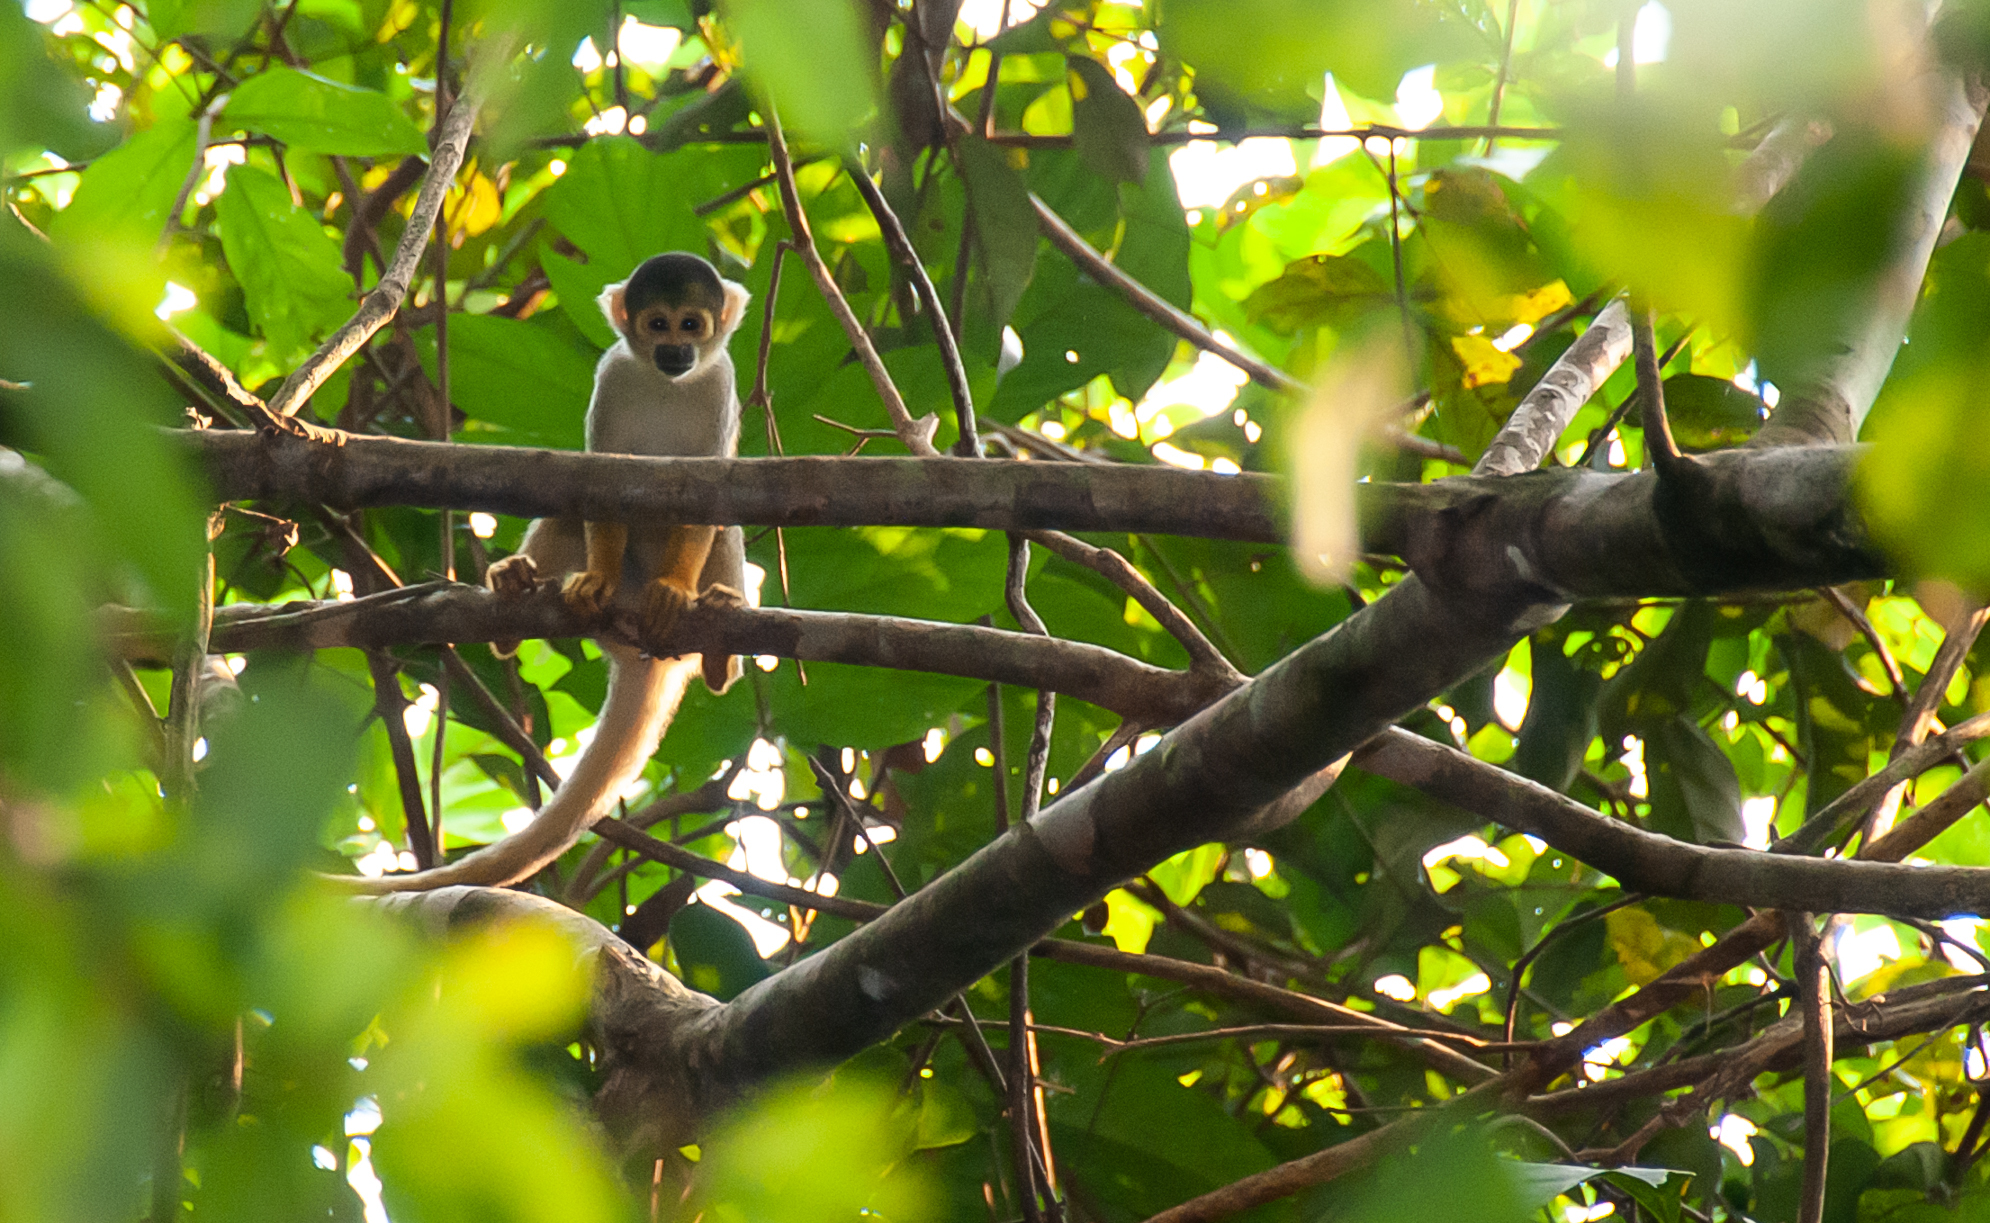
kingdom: Animalia
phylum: Chordata
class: Mammalia
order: Primates
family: Cebidae
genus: Saimiri
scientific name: Saimiri boliviensis
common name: Black-capped squirrel monkey
